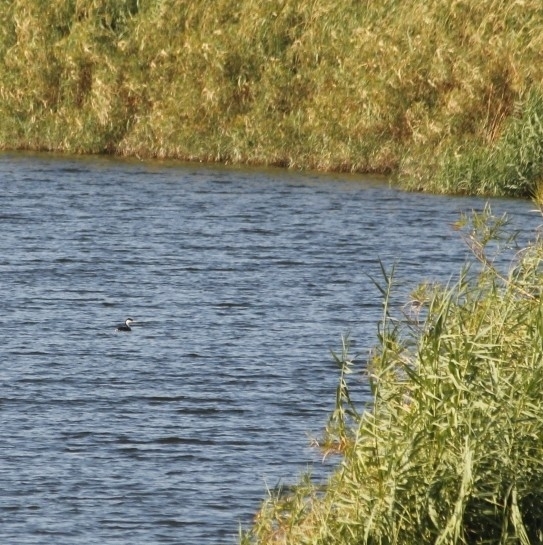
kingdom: Animalia
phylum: Chordata
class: Aves
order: Podicipediformes
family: Podicipedidae
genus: Aechmophorus
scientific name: Aechmophorus occidentalis
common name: Western grebe
